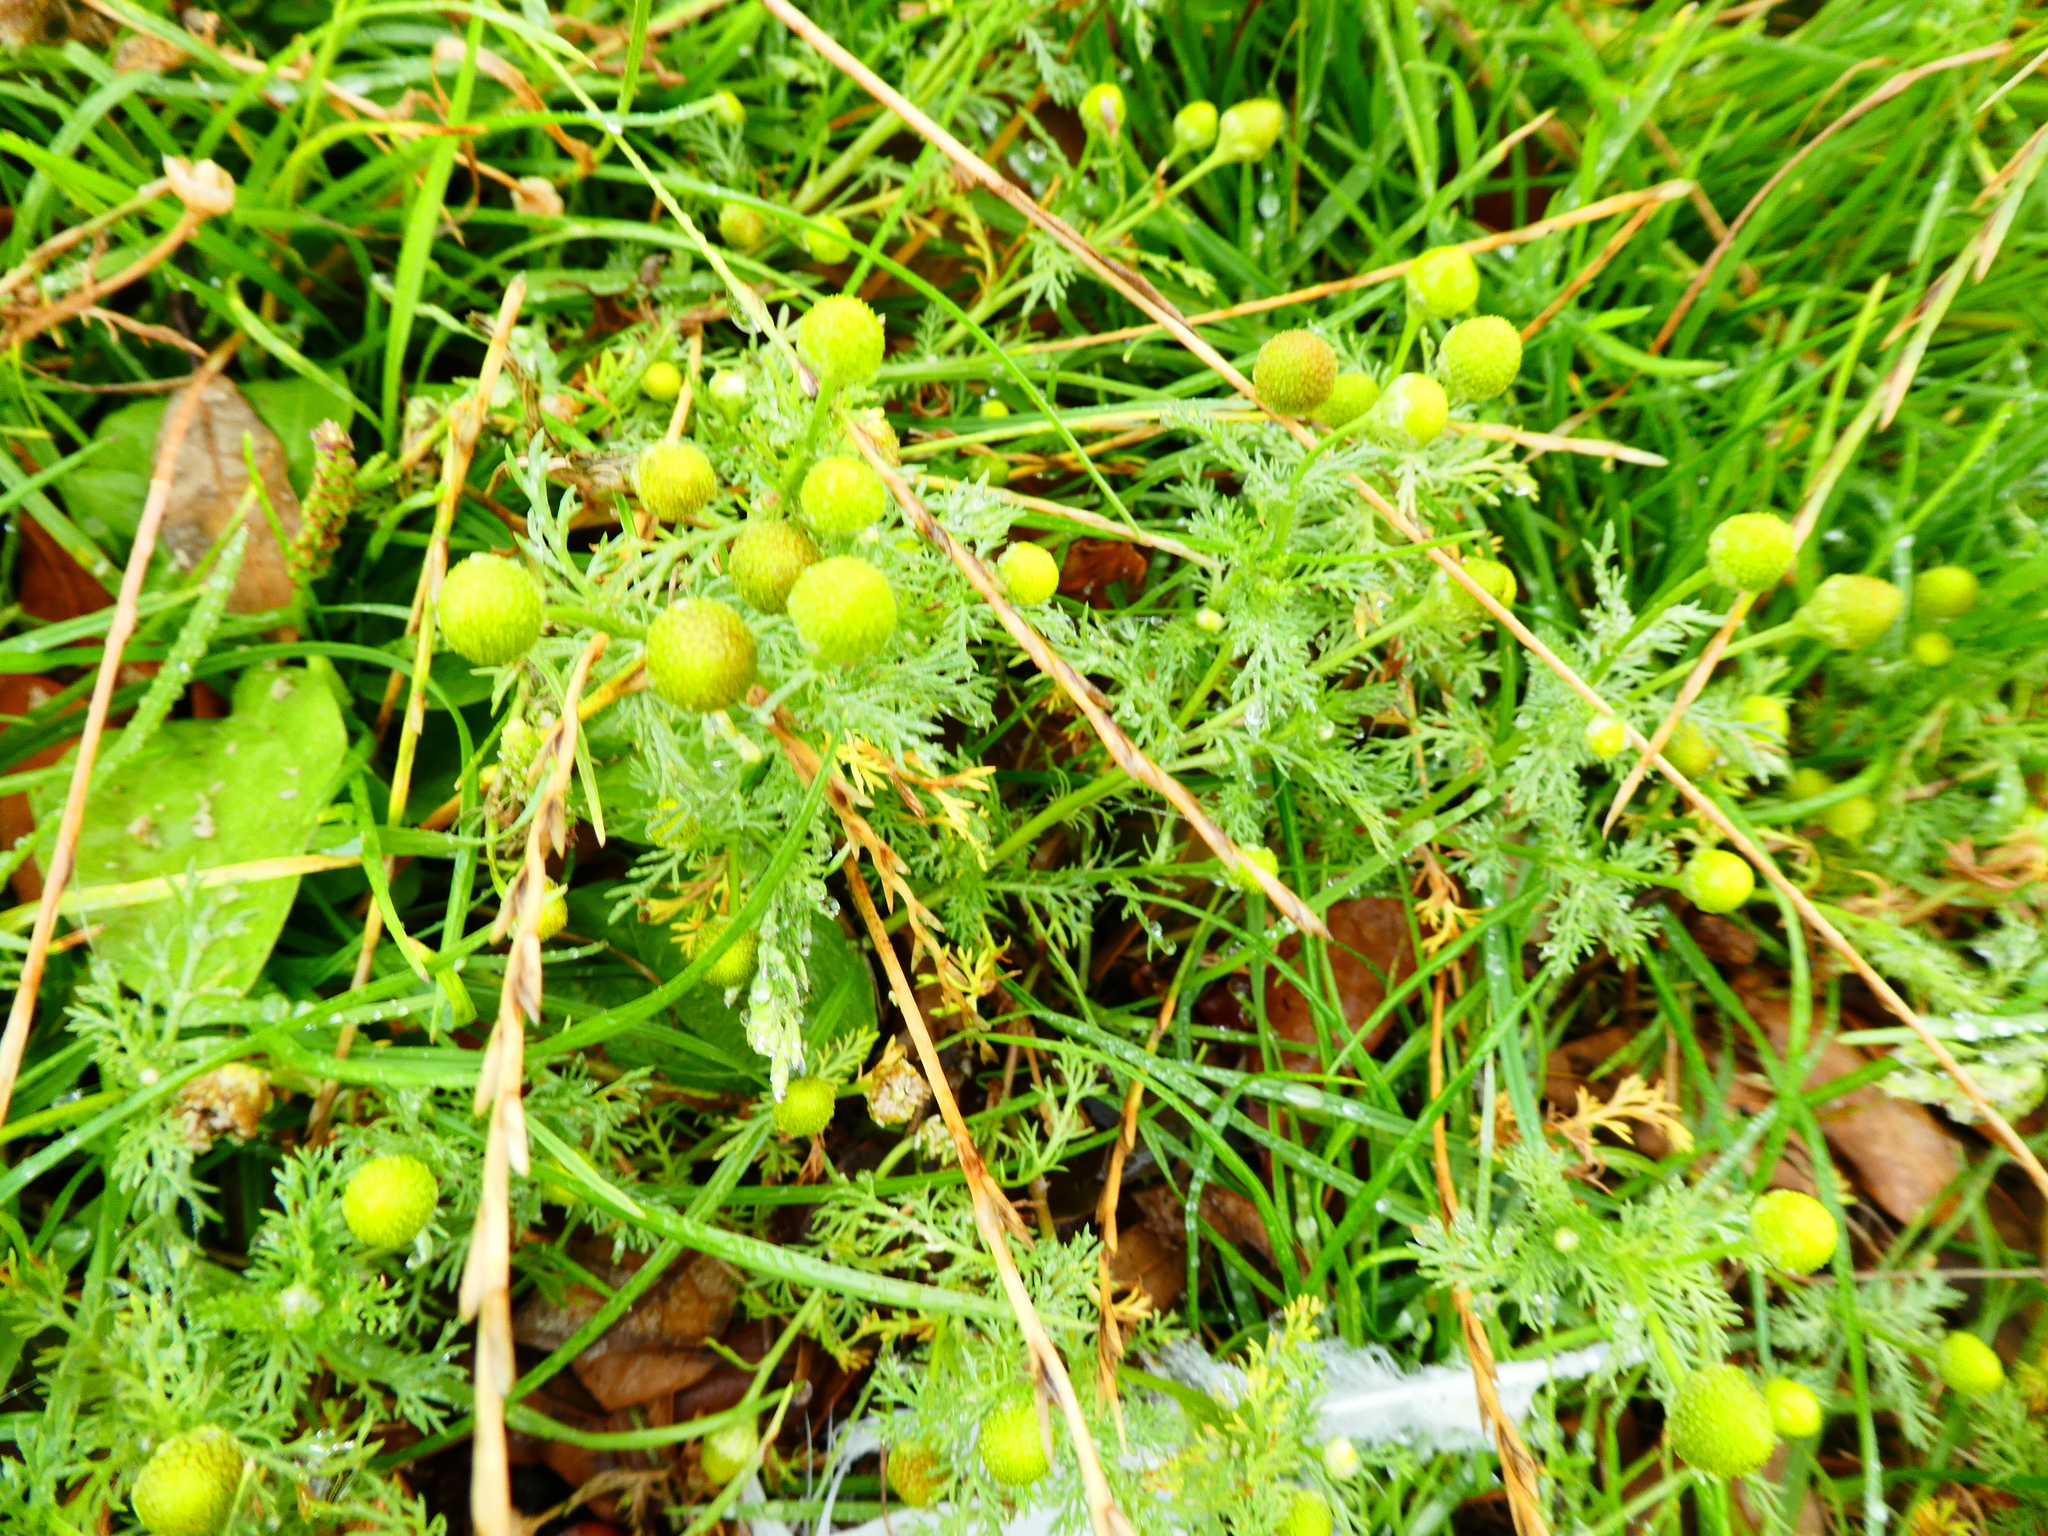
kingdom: Plantae
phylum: Tracheophyta
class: Magnoliopsida
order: Asterales
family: Asteraceae
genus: Matricaria
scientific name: Matricaria discoidea
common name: Disc mayweed
